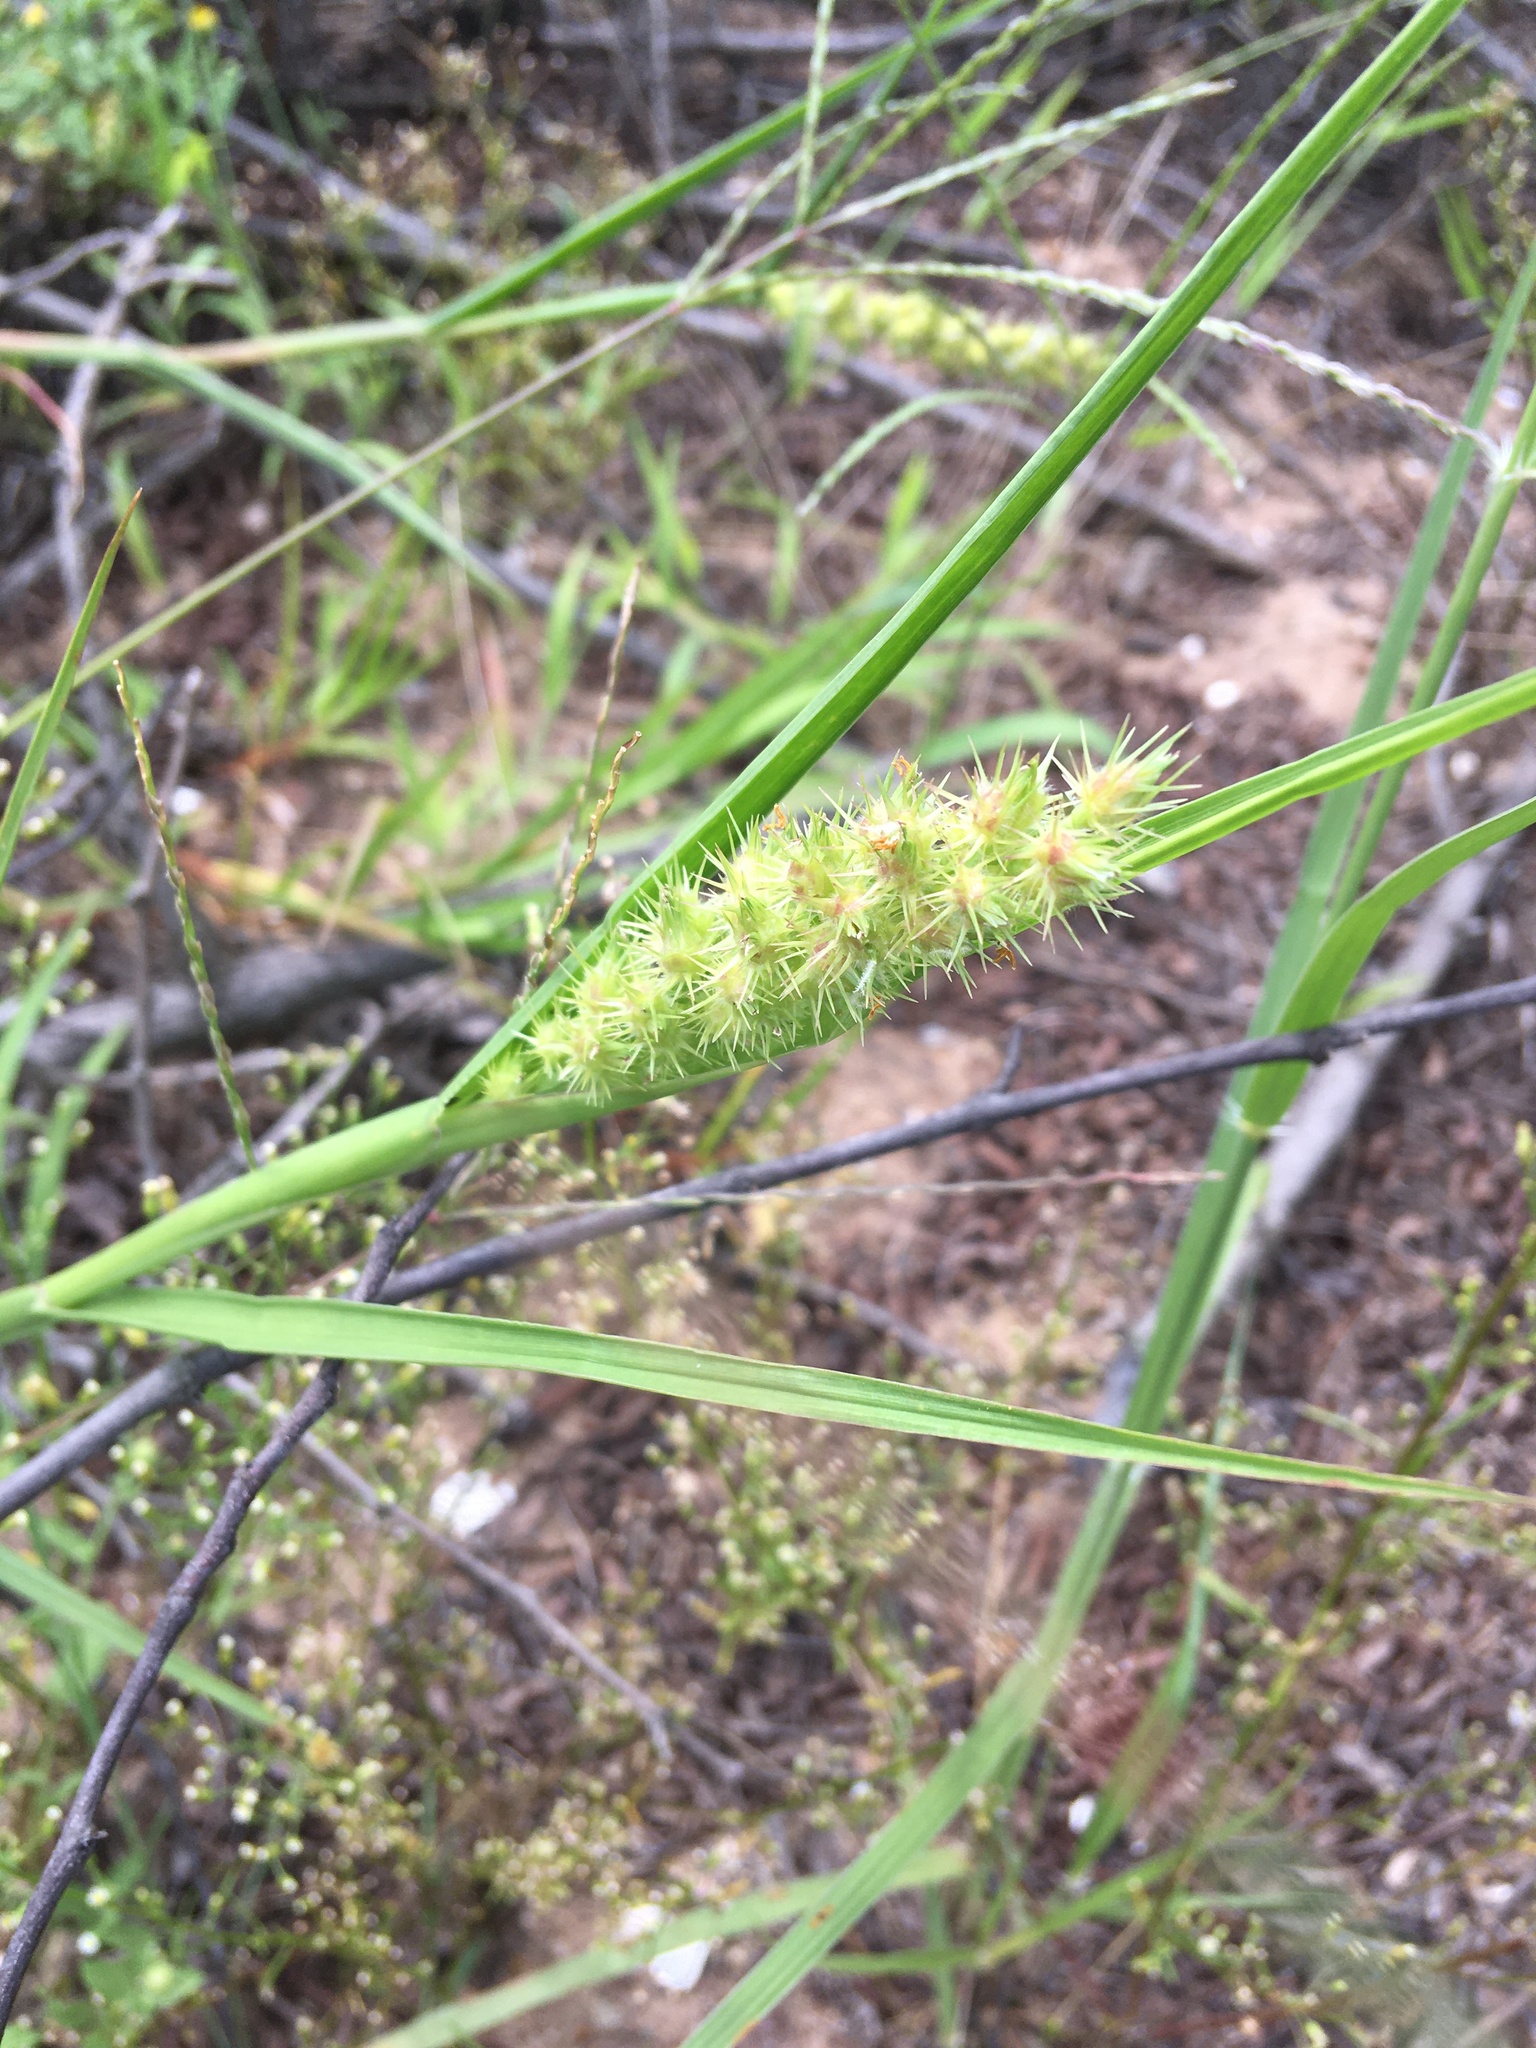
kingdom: Plantae
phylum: Tracheophyta
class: Liliopsida
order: Poales
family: Poaceae
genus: Cenchrus
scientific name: Cenchrus echinatus
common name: Southern sandbur
